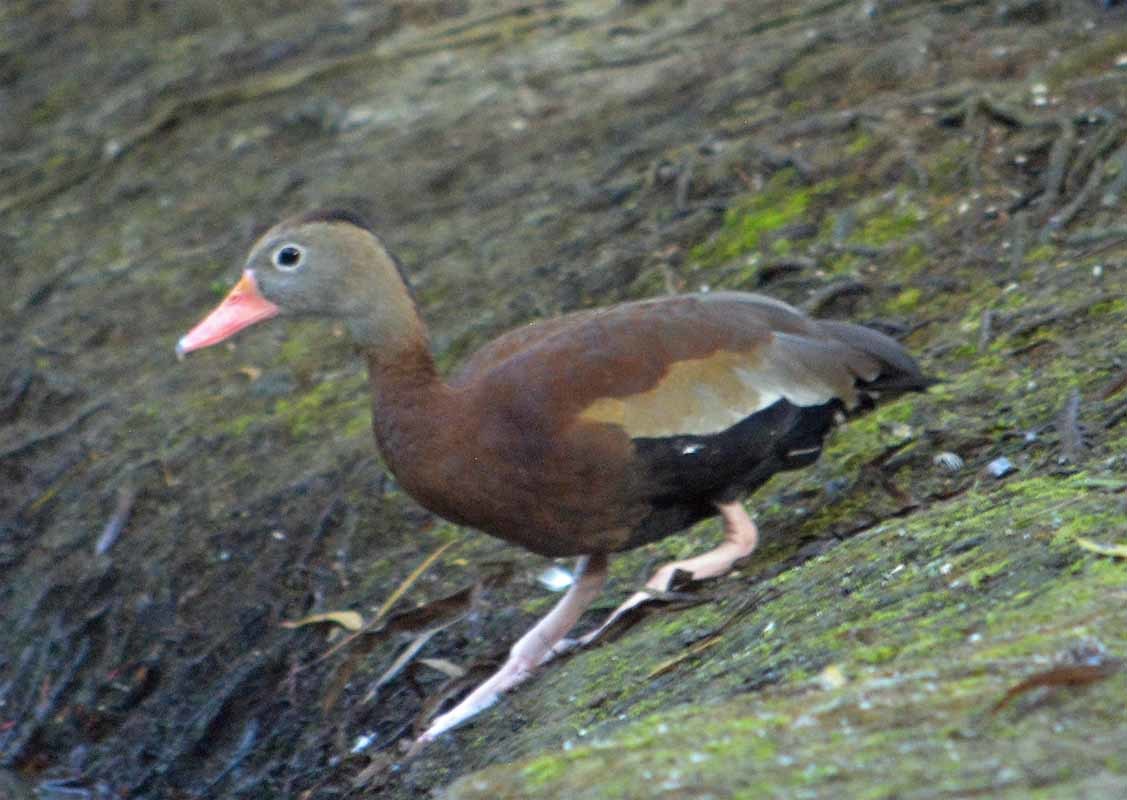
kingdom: Animalia
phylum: Chordata
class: Aves
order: Anseriformes
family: Anatidae
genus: Dendrocygna
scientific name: Dendrocygna autumnalis
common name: Black-bellied whistling duck
